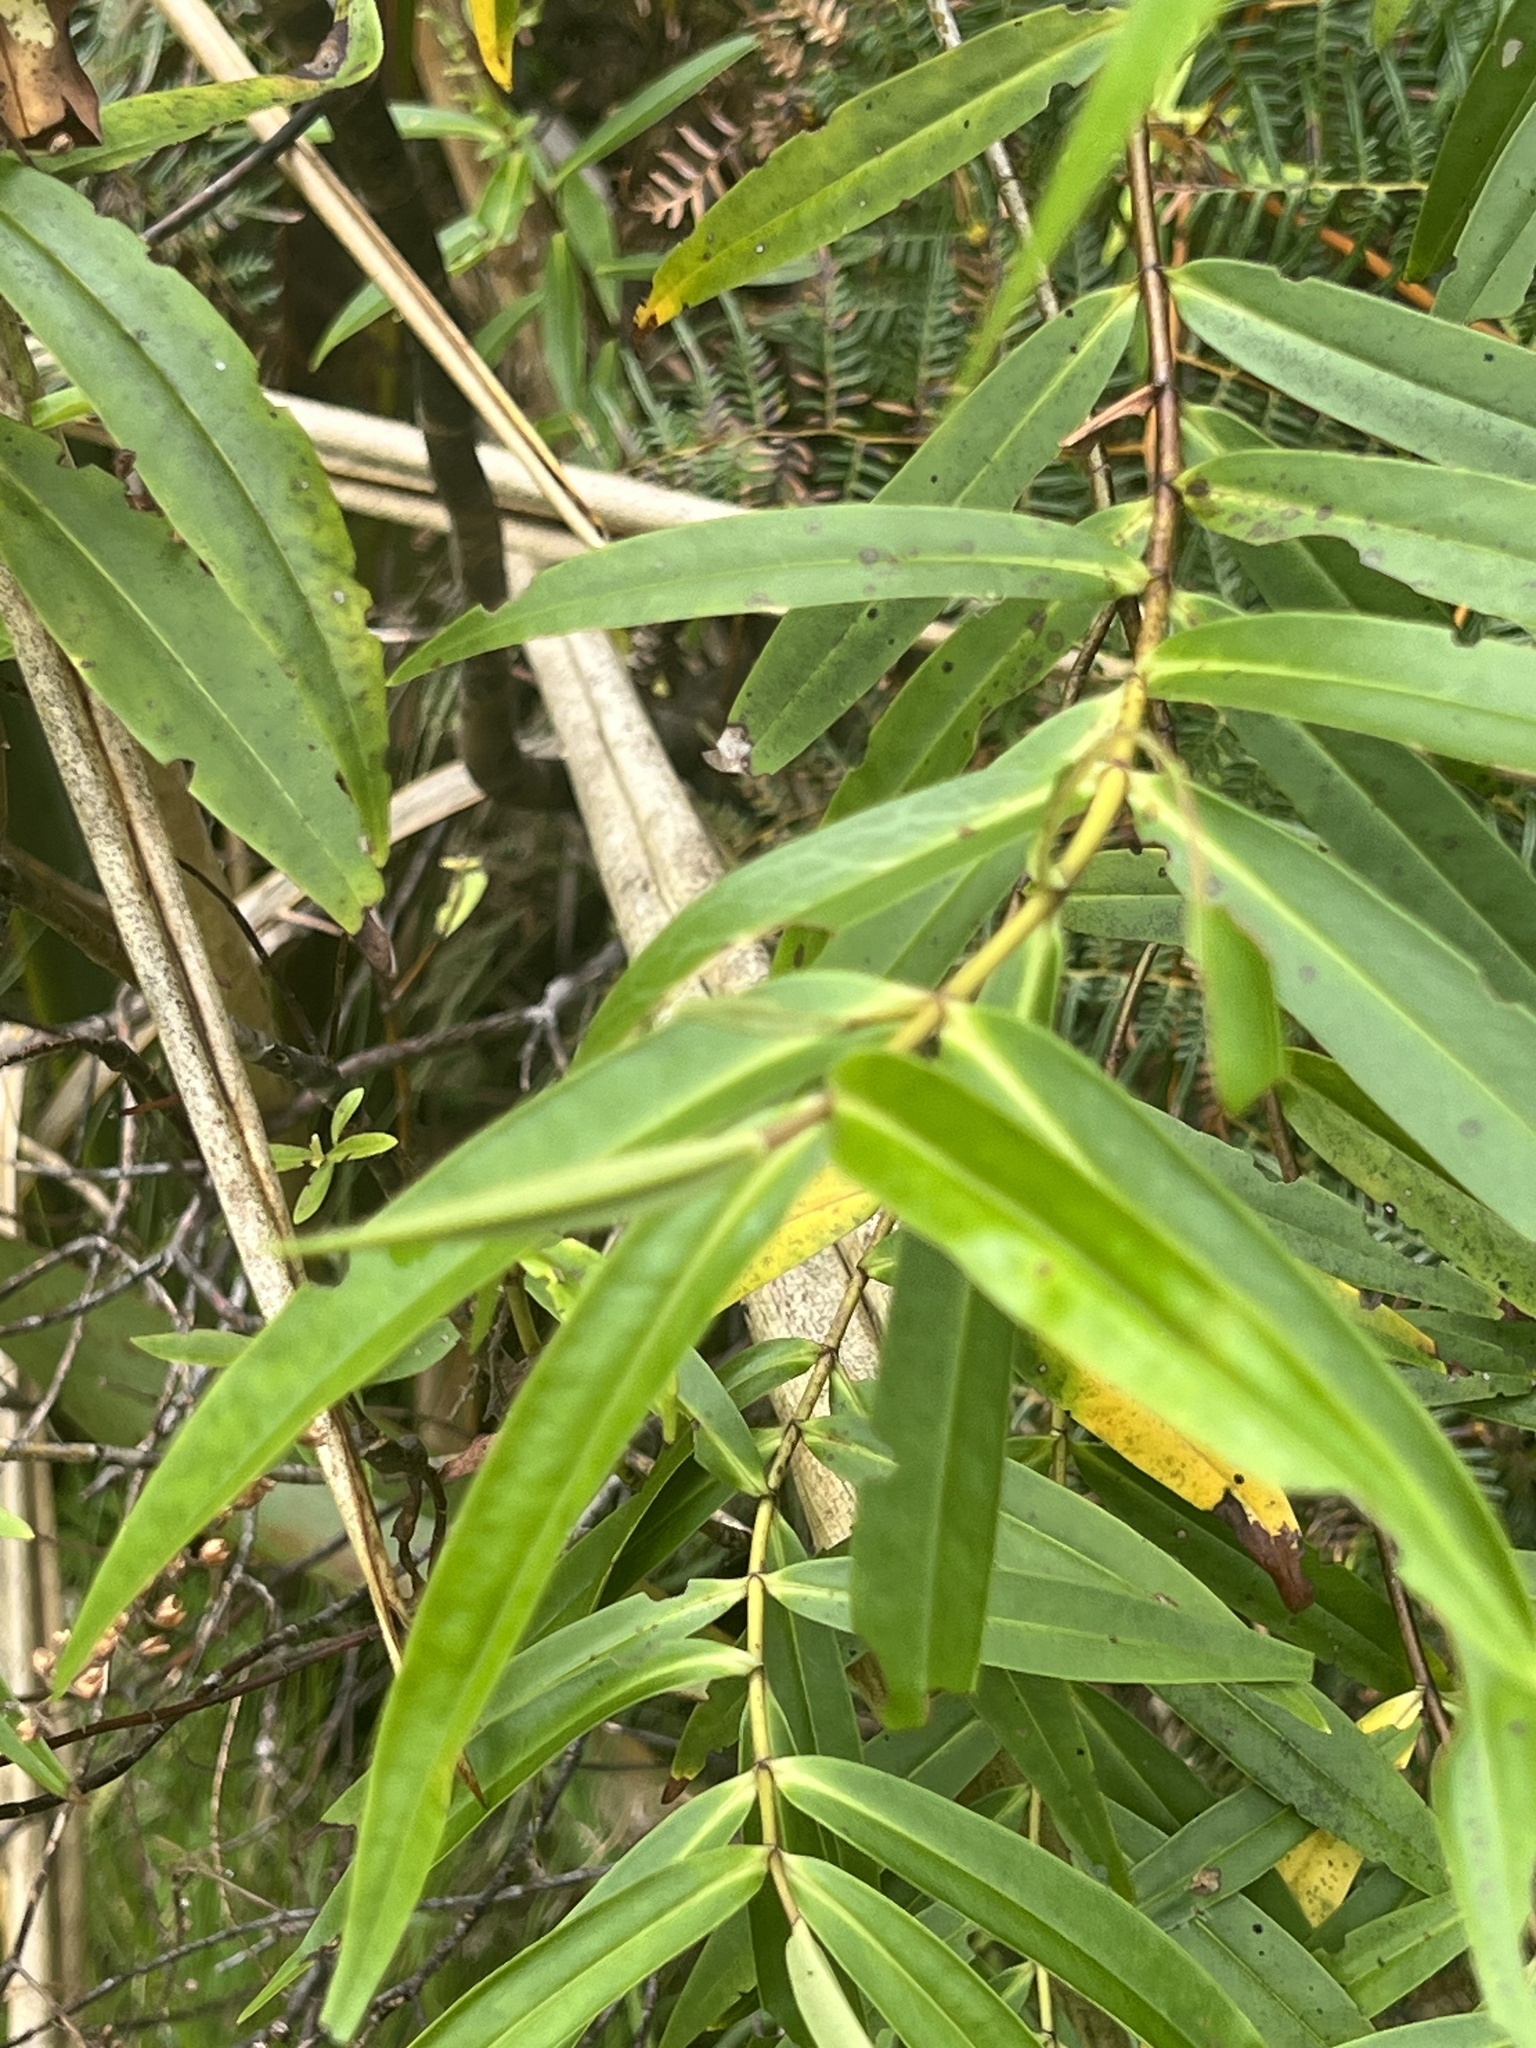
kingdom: Plantae
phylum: Tracheophyta
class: Magnoliopsida
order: Lamiales
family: Plantaginaceae
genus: Veronica
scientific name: Veronica stricta
